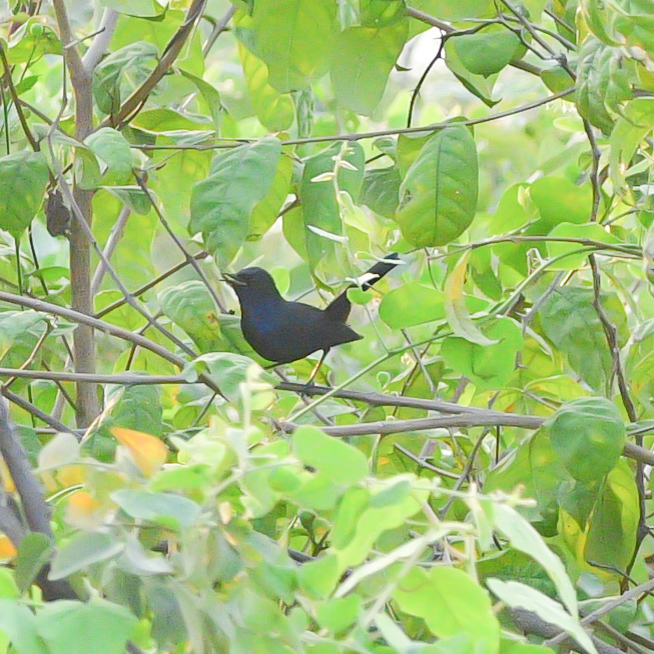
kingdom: Animalia
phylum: Chordata
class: Aves
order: Passeriformes
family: Muscicapidae
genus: Saxicoloides
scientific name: Saxicoloides fulicatus
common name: Indian robin
